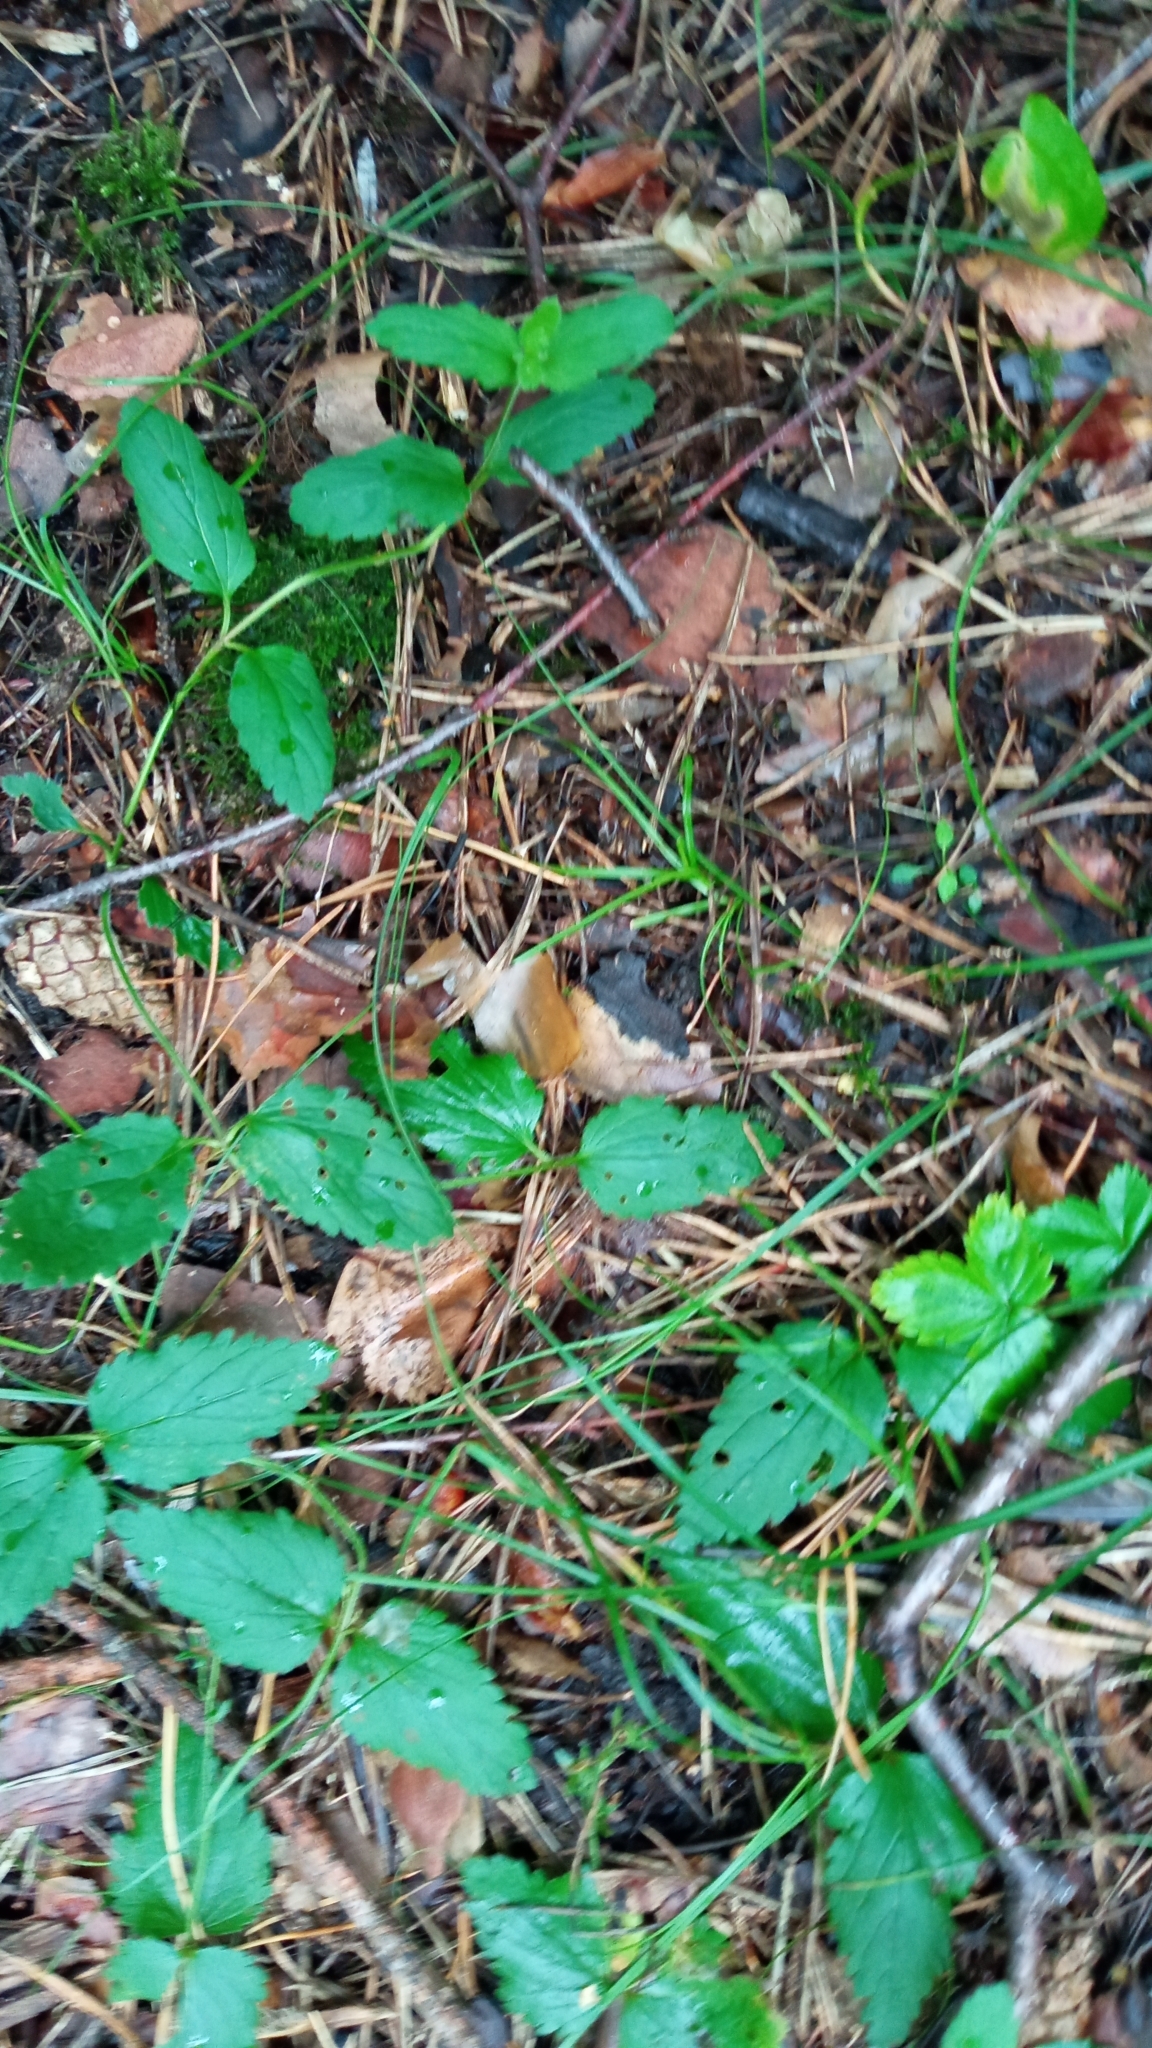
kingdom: Plantae
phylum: Tracheophyta
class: Magnoliopsida
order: Lamiales
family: Plantaginaceae
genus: Veronica
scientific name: Veronica chamaedrys
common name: Germander speedwell
